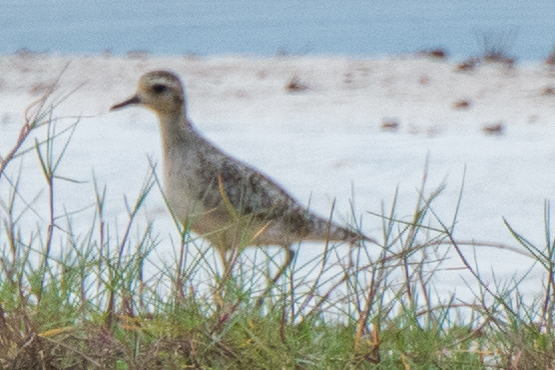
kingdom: Animalia
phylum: Chordata
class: Aves
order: Charadriiformes
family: Charadriidae
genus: Pluvialis
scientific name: Pluvialis fulva
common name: Pacific golden plover
